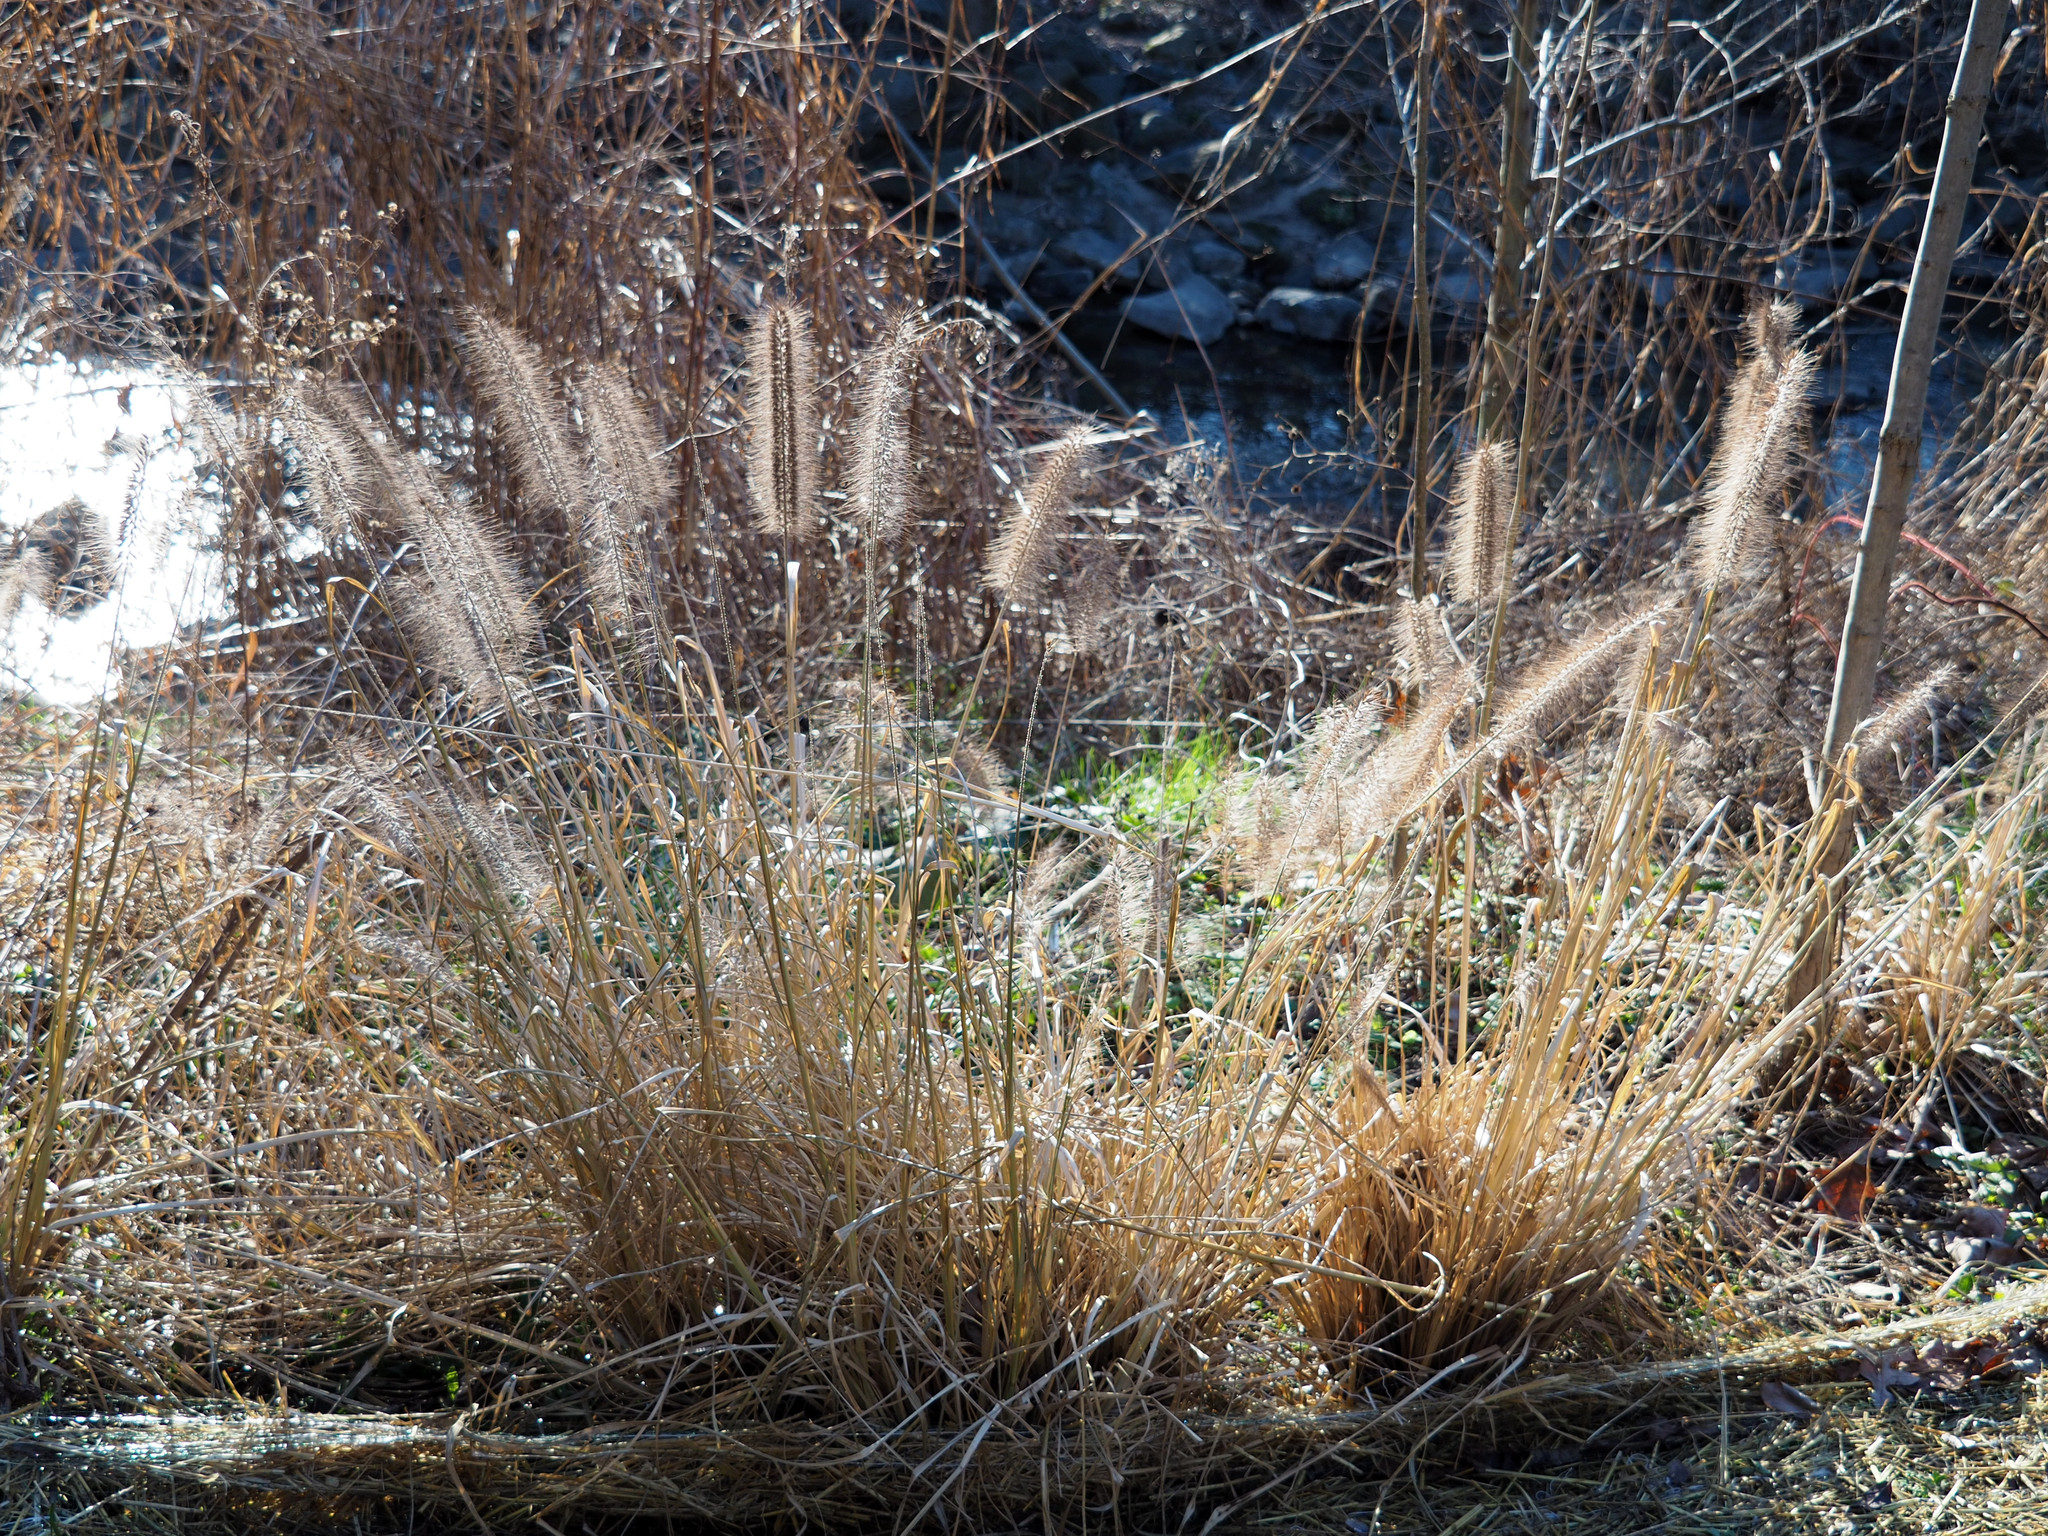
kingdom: Plantae
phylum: Tracheophyta
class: Liliopsida
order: Poales
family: Poaceae
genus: Cenchrus
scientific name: Cenchrus alopecuroides
